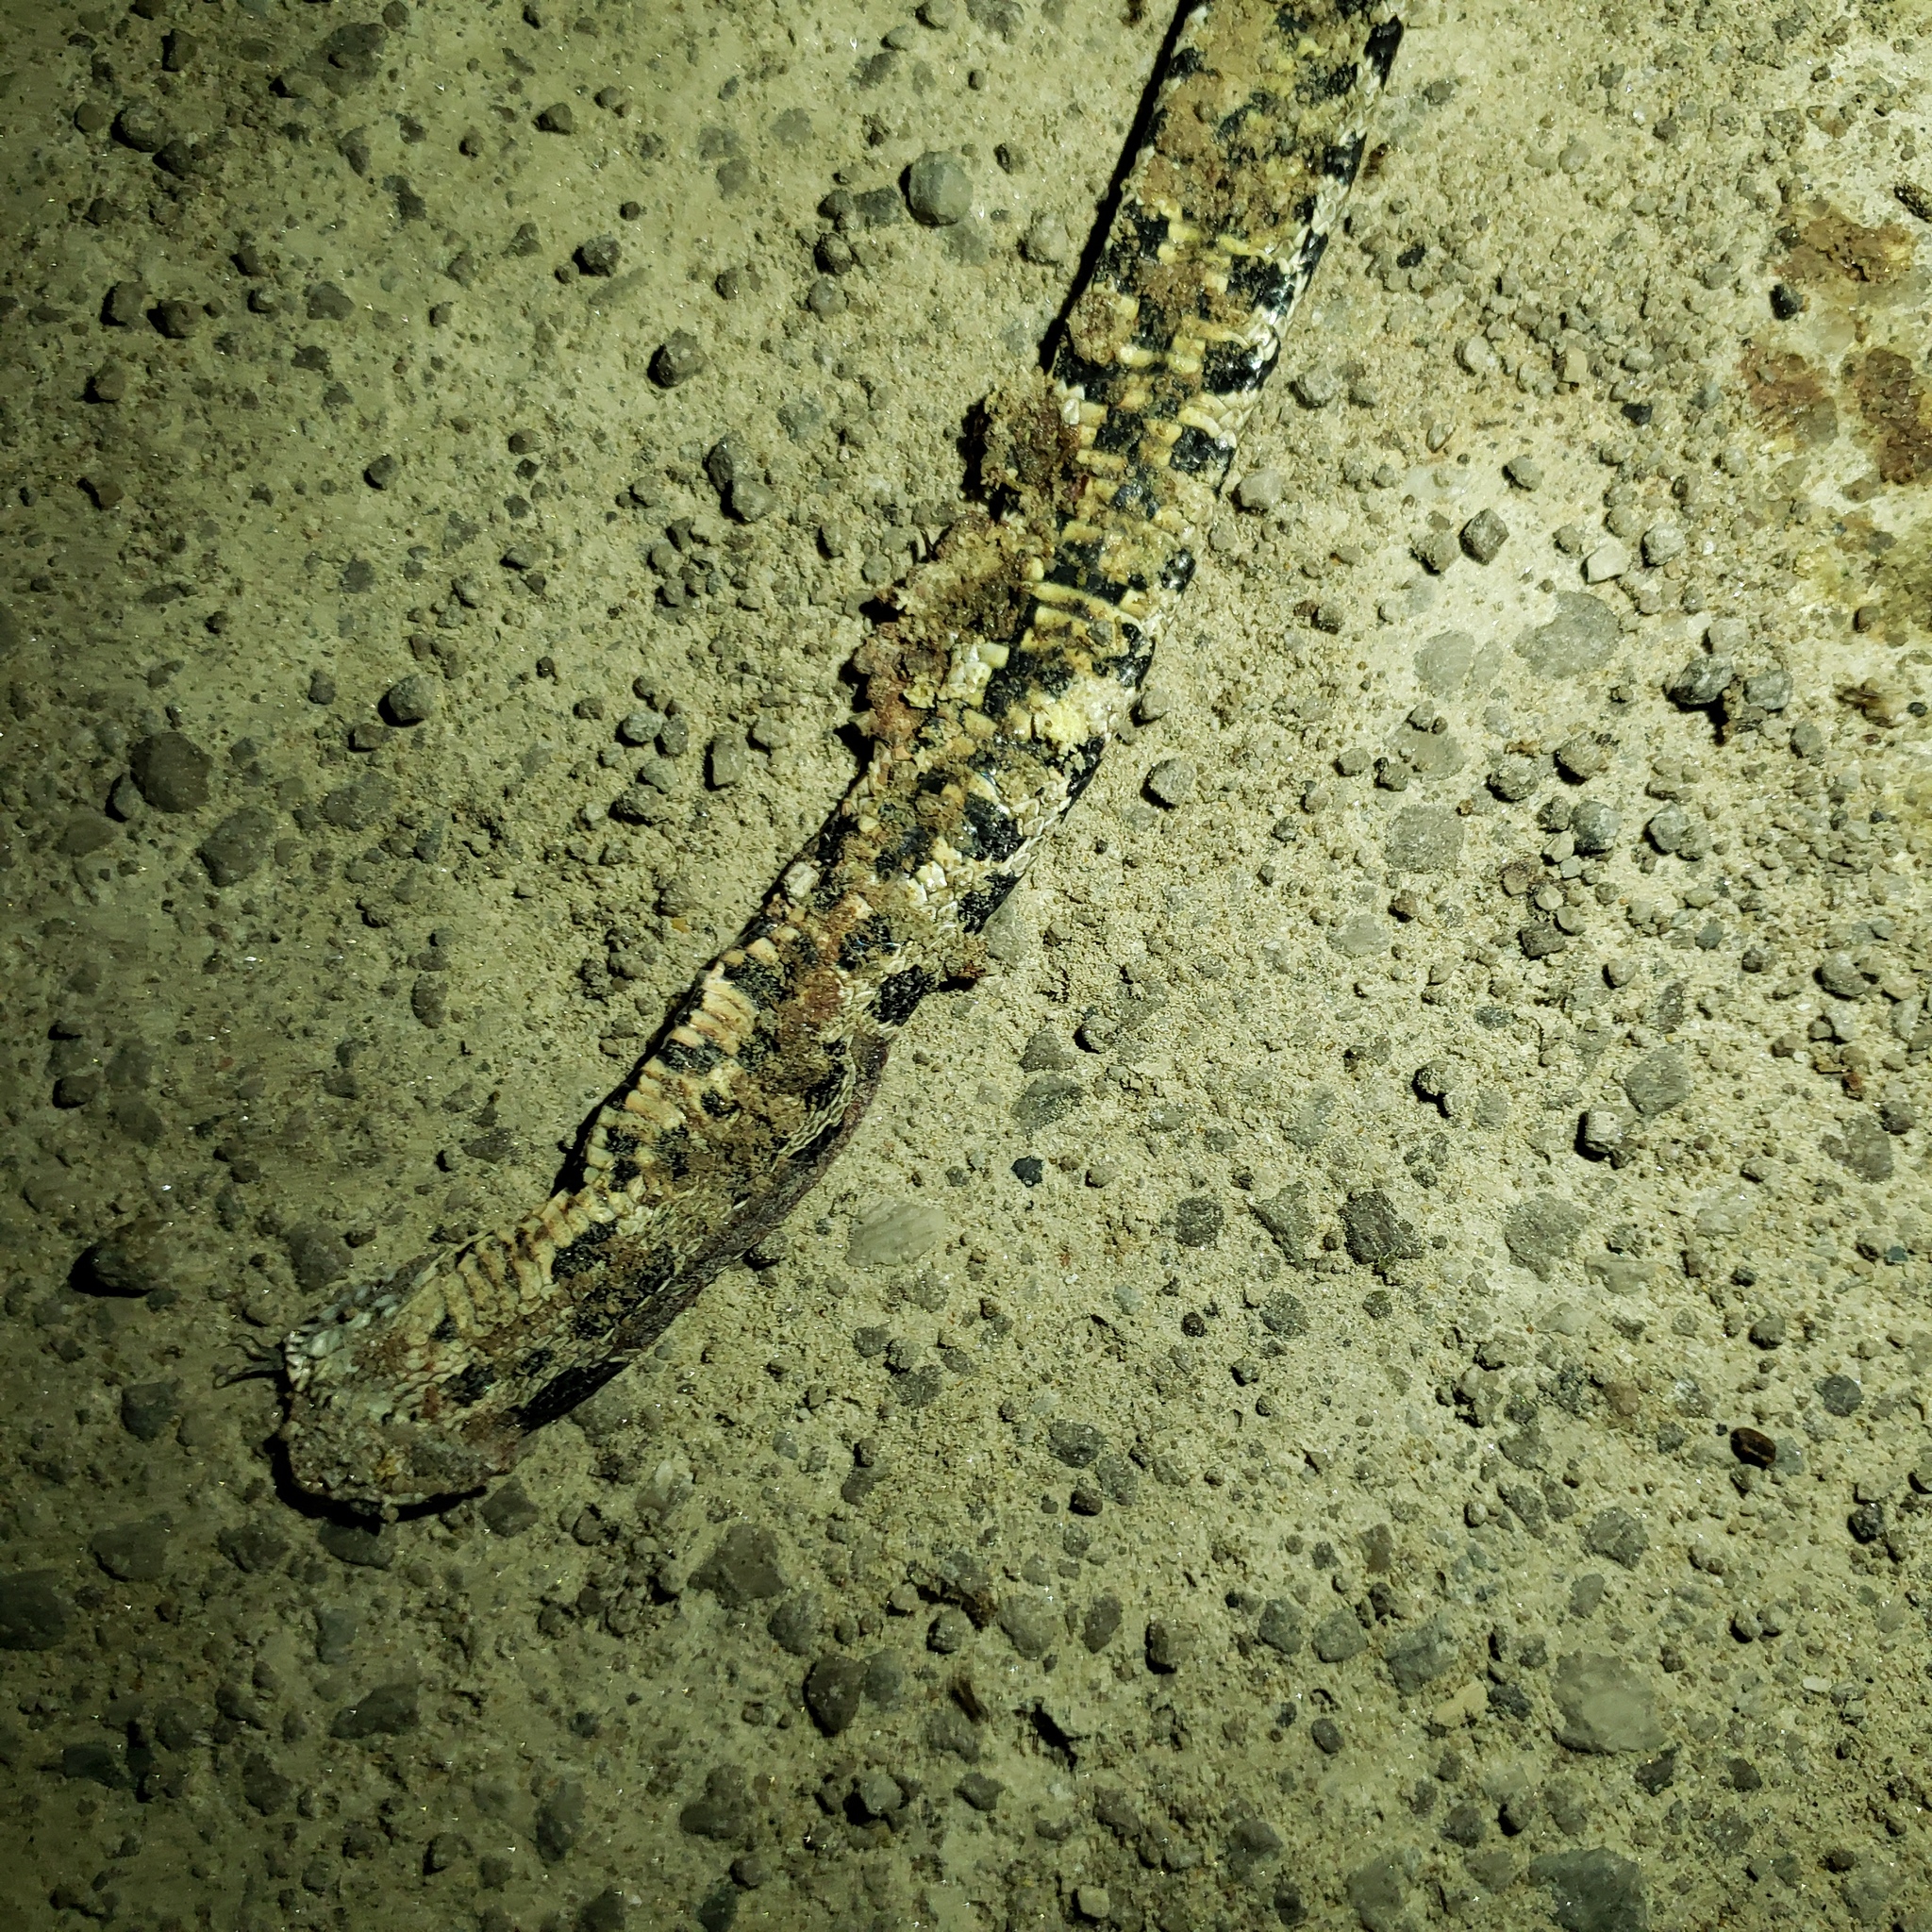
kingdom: Animalia
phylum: Chordata
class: Squamata
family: Colubridae
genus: Pantherophis
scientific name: Pantherophis vulpinus
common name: Eastern fox snake
